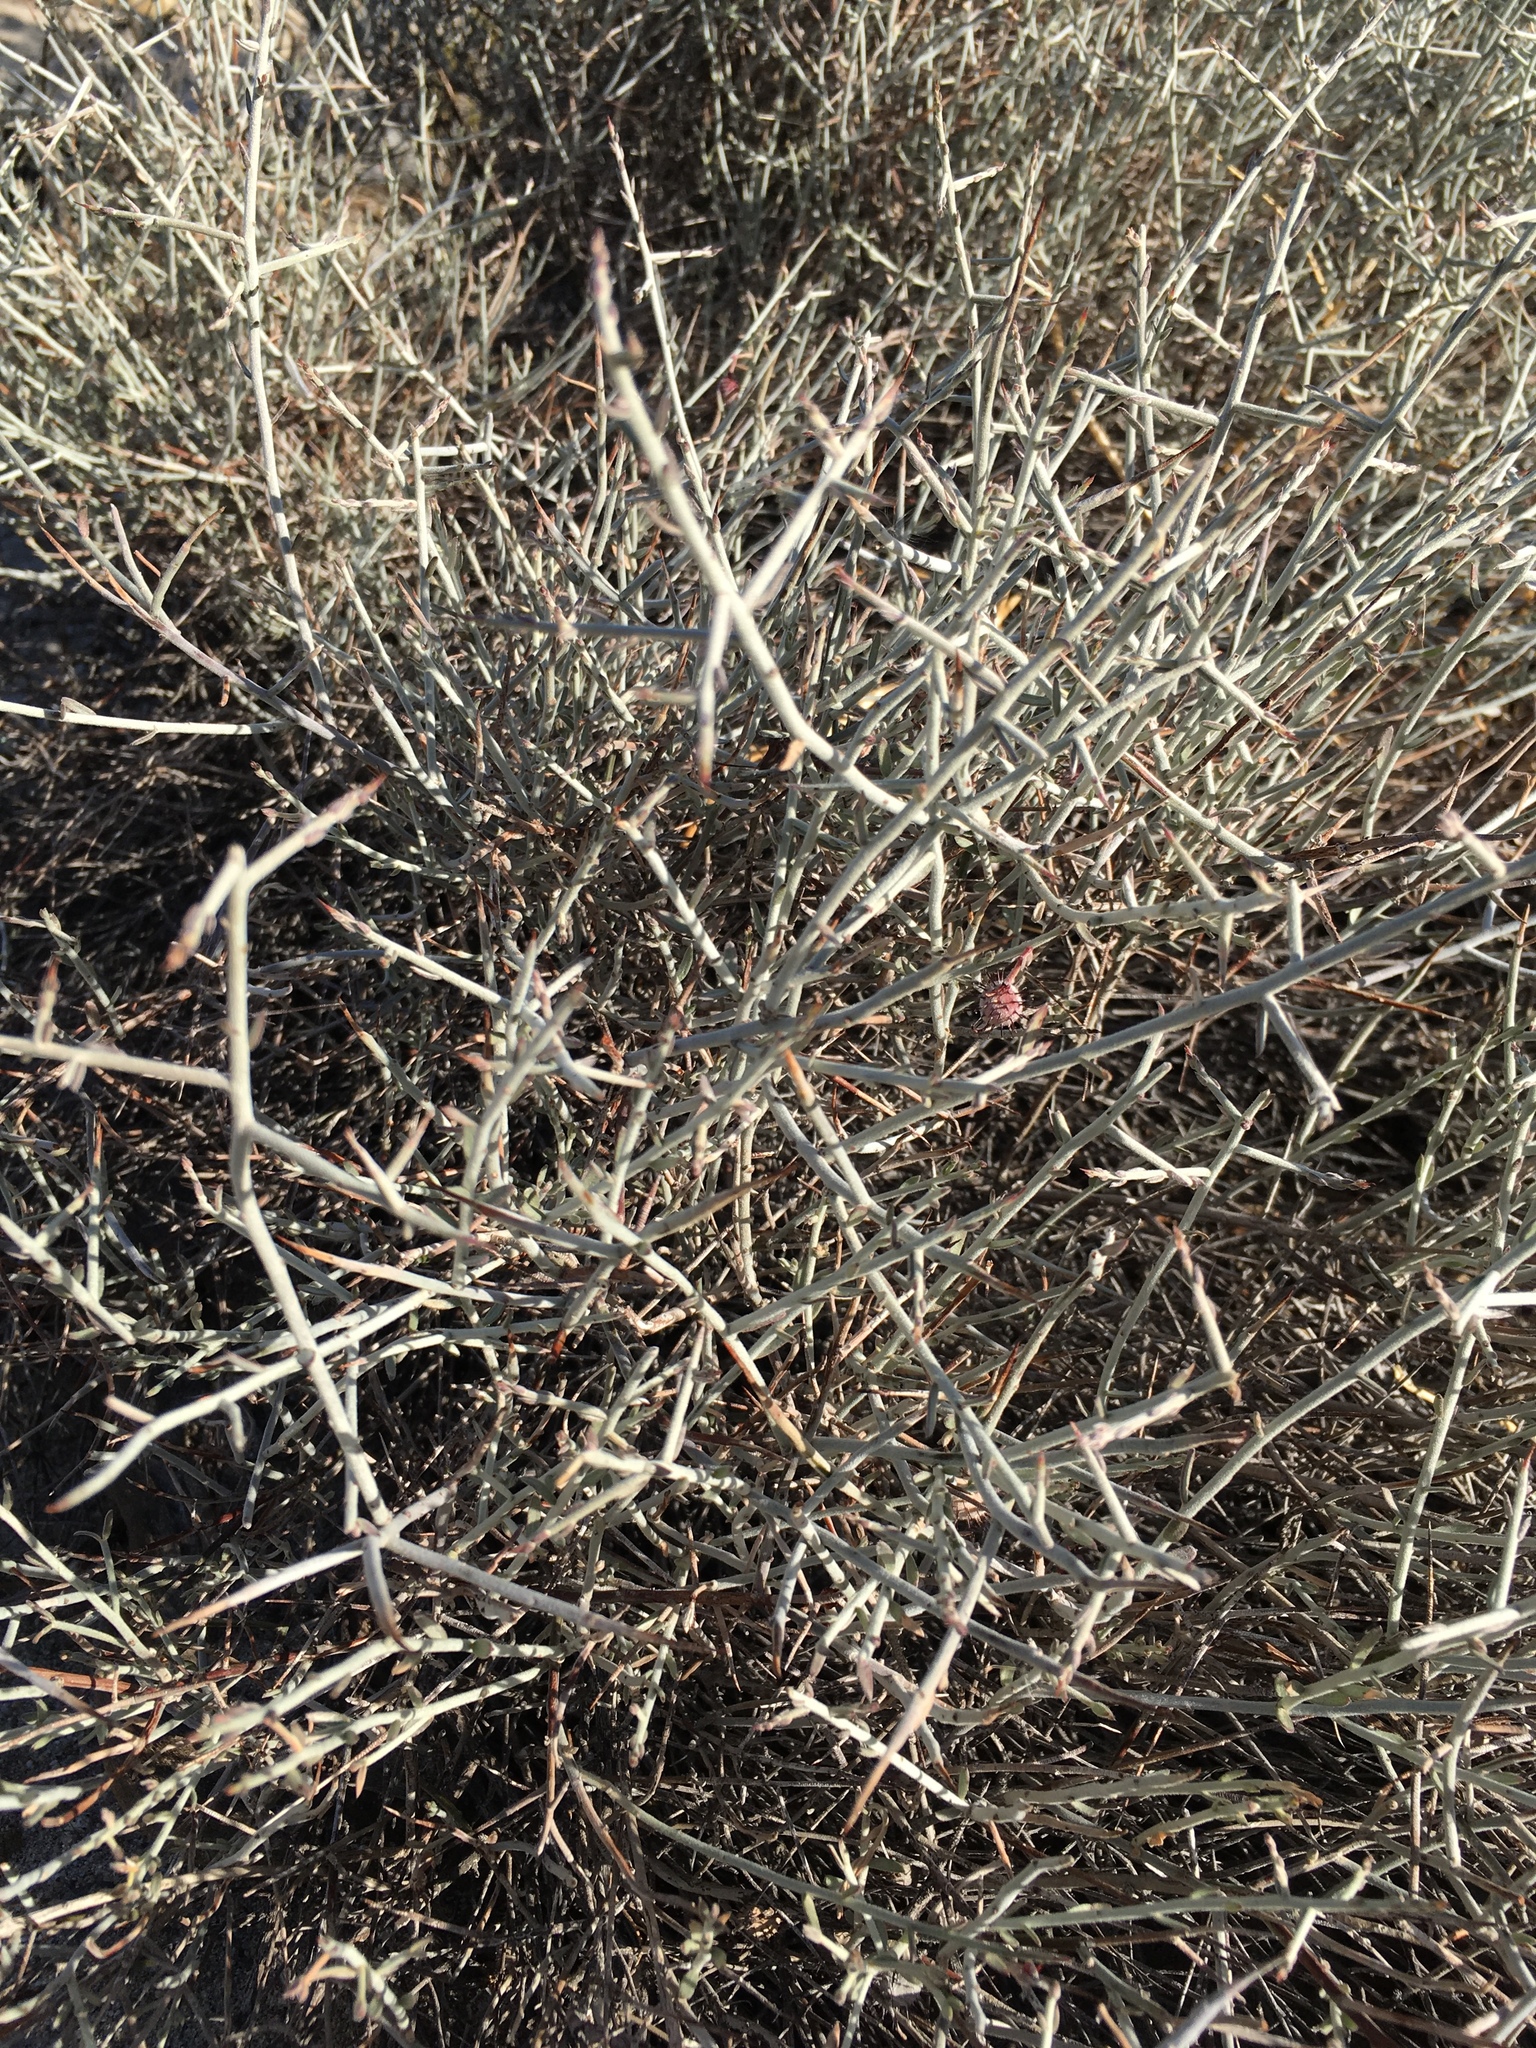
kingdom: Plantae
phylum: Tracheophyta
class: Magnoliopsida
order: Zygophyllales
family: Krameriaceae
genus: Krameria
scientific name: Krameria bicolor
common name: White ratany
